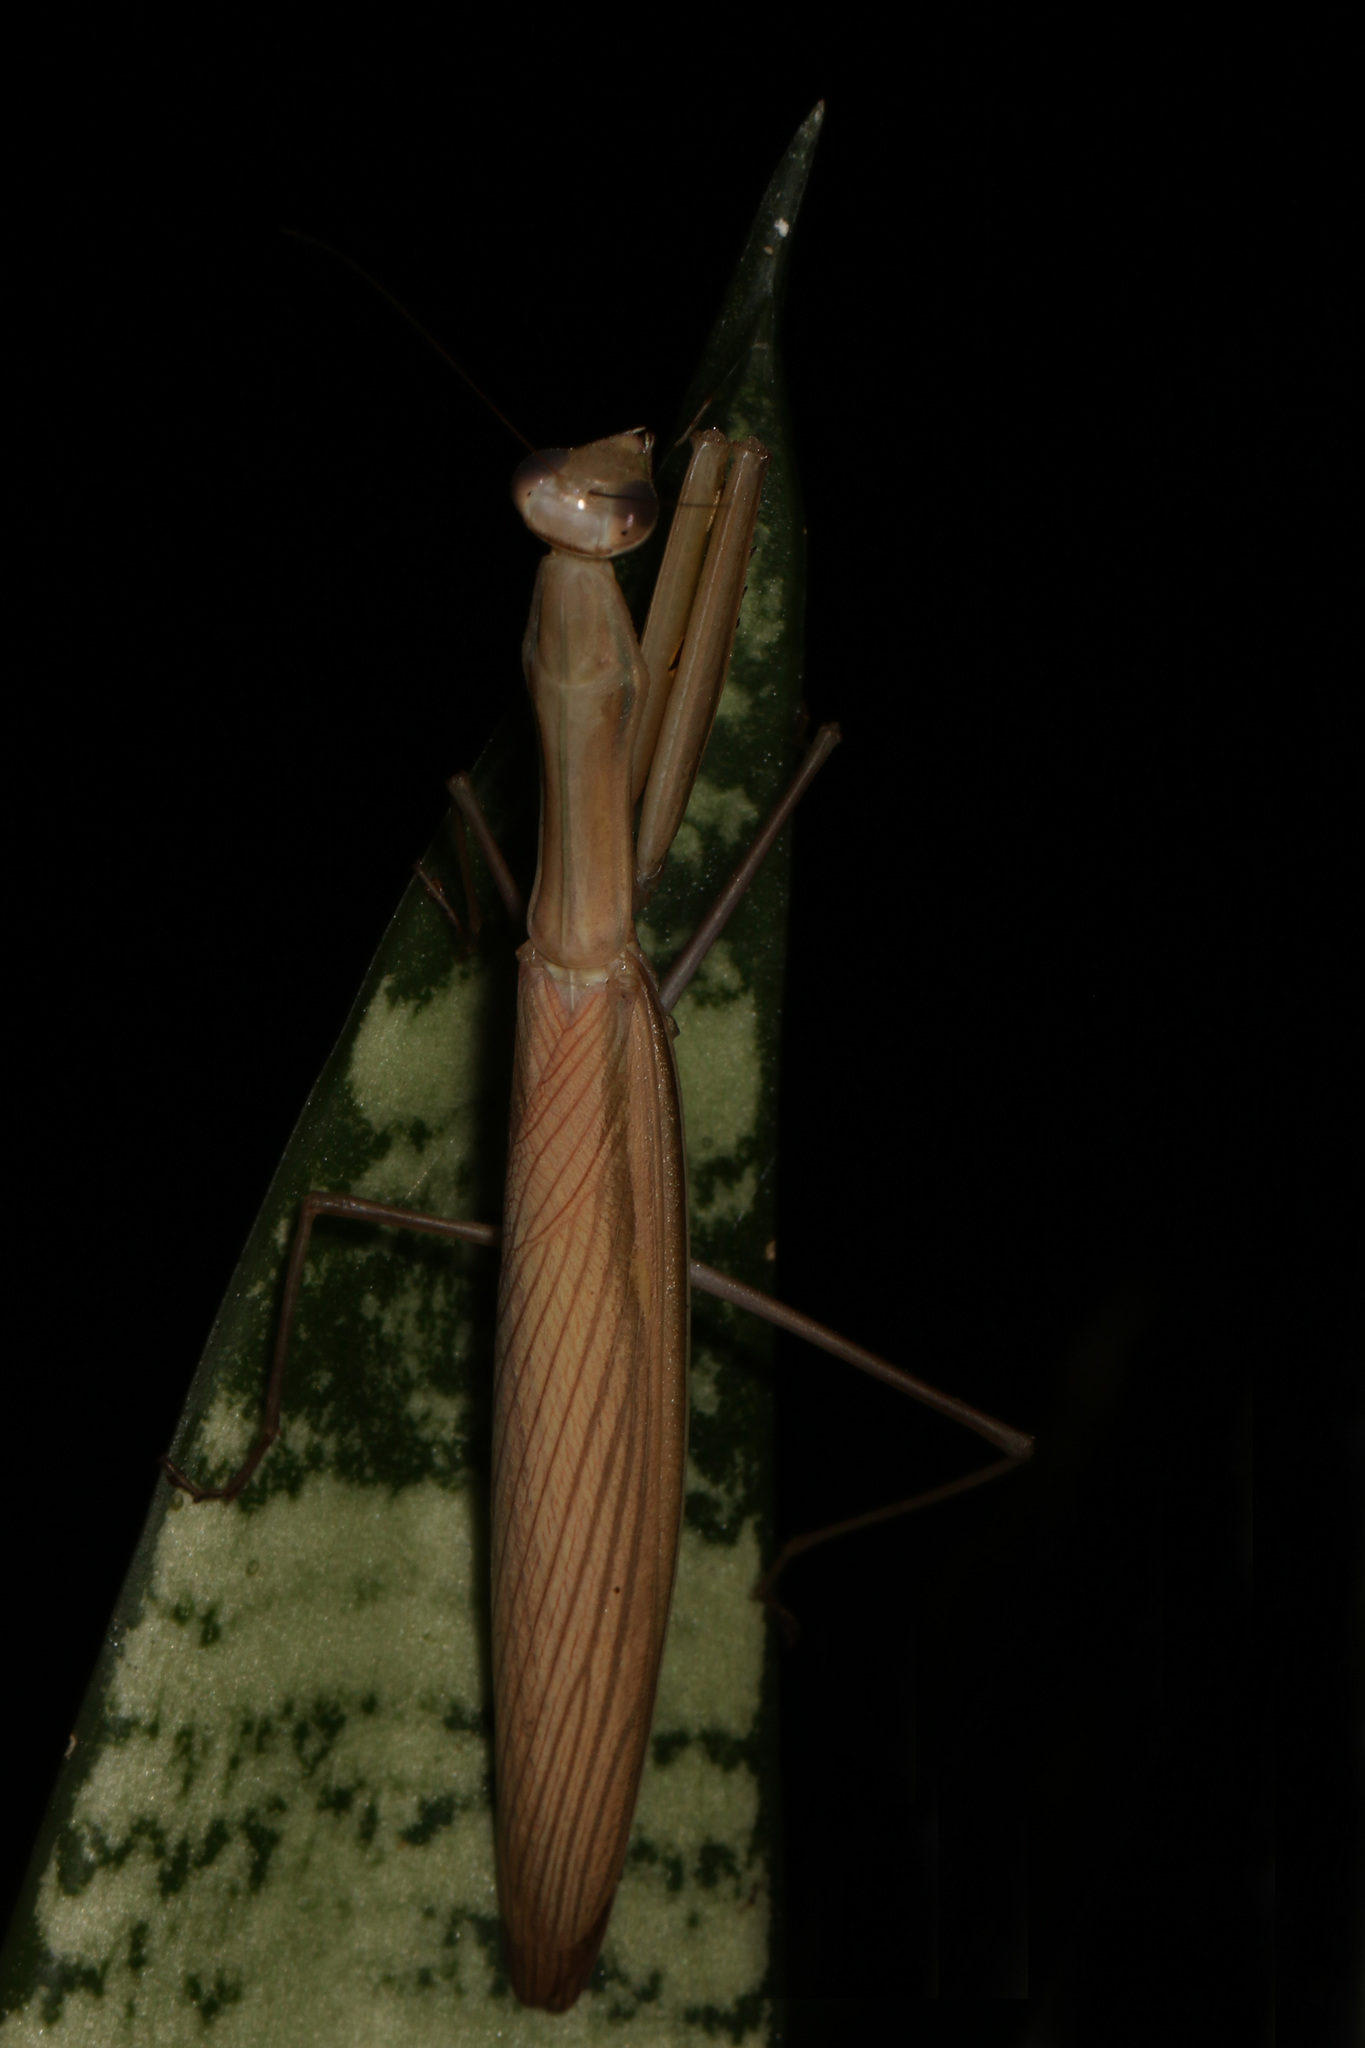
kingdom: Animalia
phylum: Arthropoda
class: Insecta
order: Mantodea
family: Mantidae
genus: Mantis
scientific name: Mantis religiosa
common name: Praying mantis
